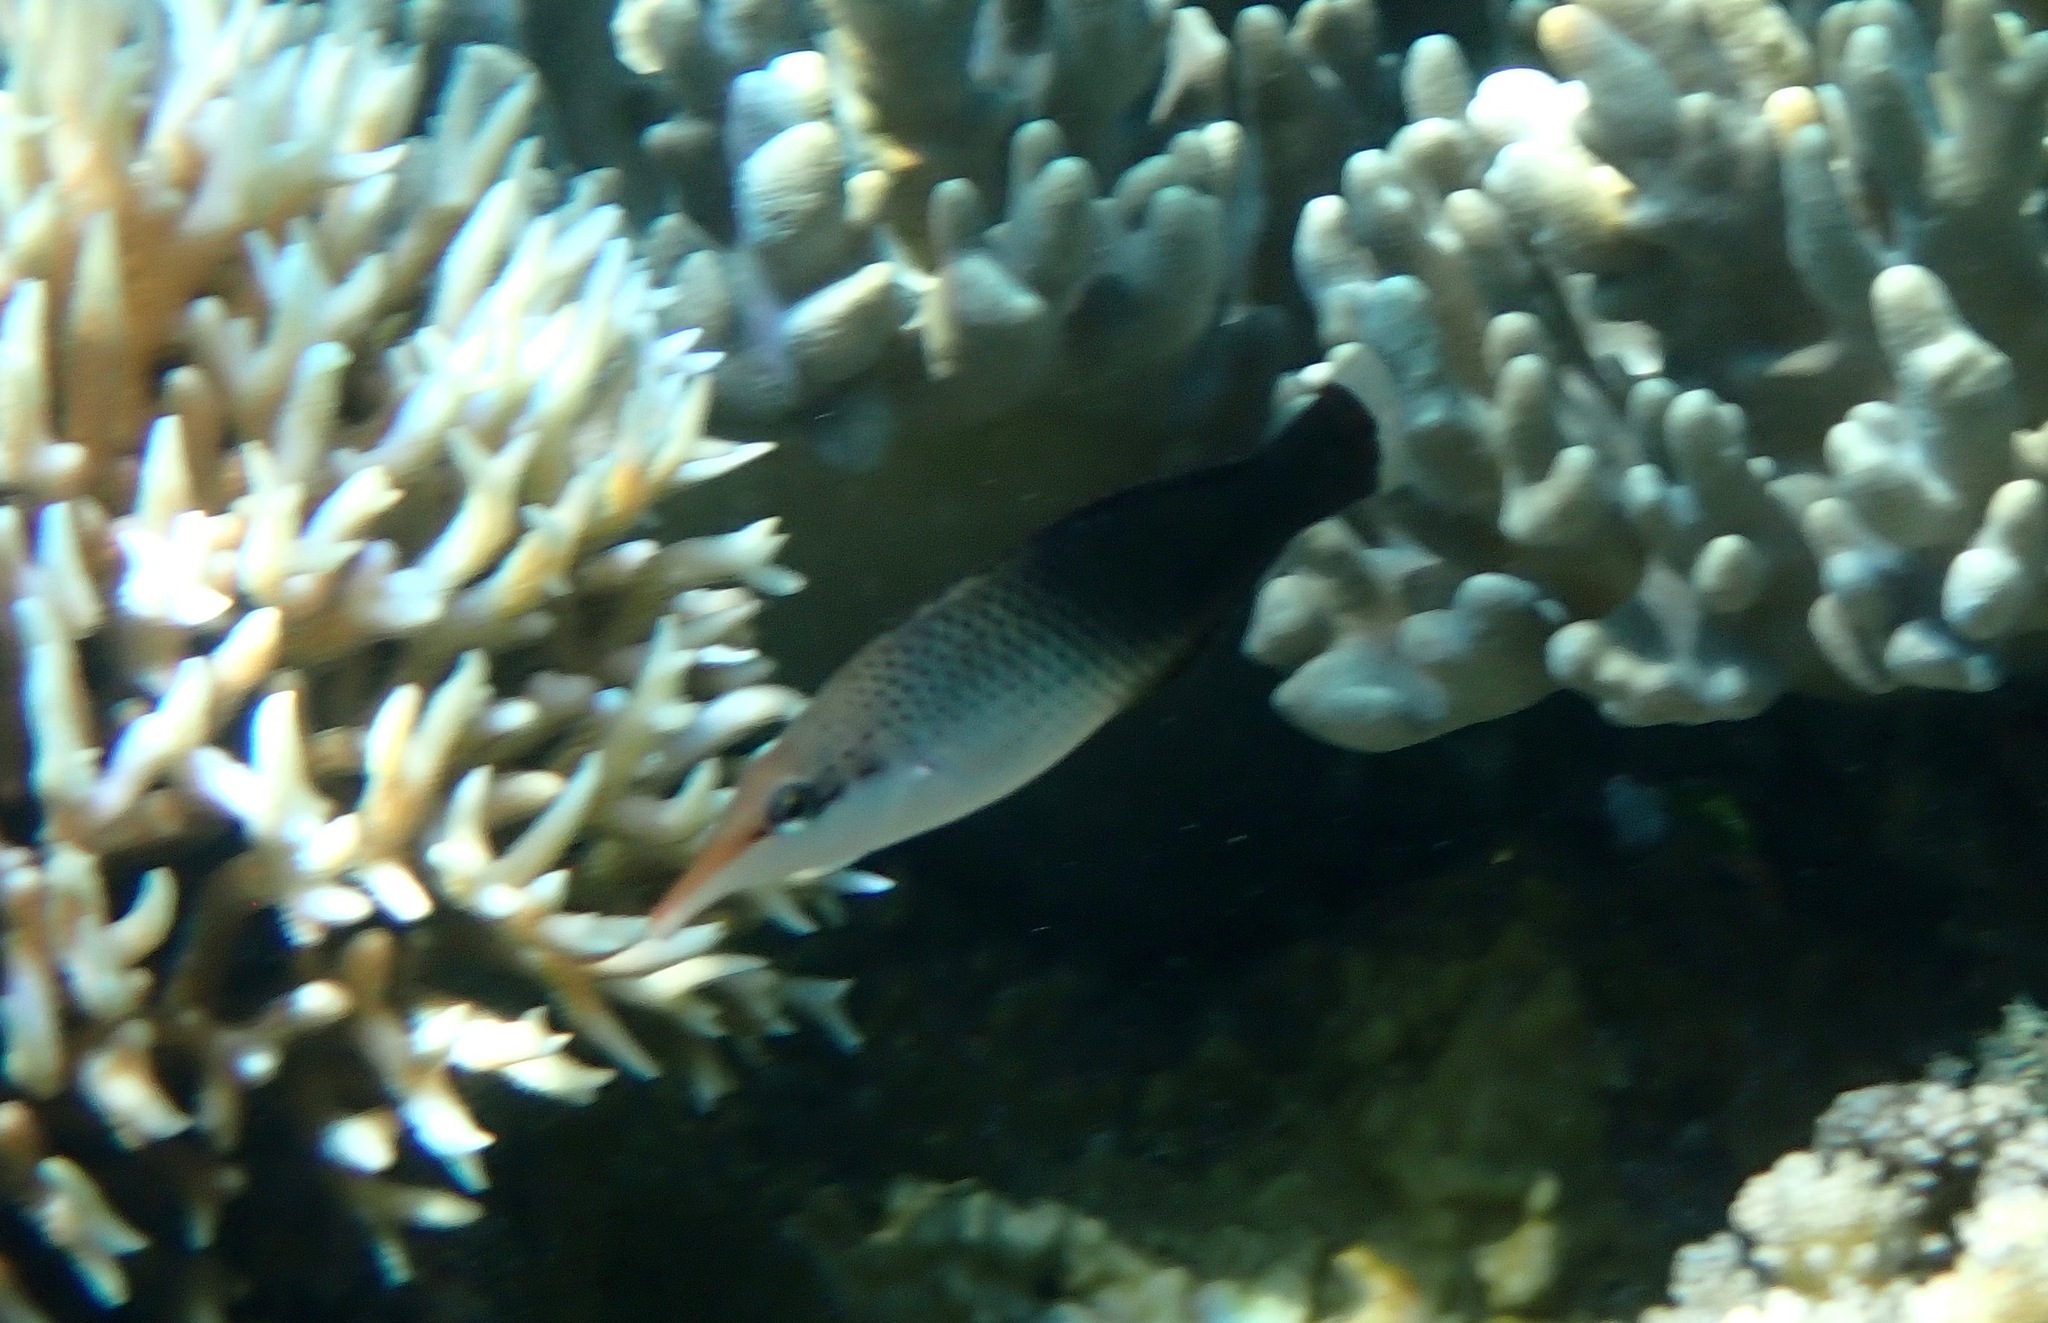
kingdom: Animalia
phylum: Chordata
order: Perciformes
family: Labridae
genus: Gomphosus
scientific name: Gomphosus varius
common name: Bird wrasse
